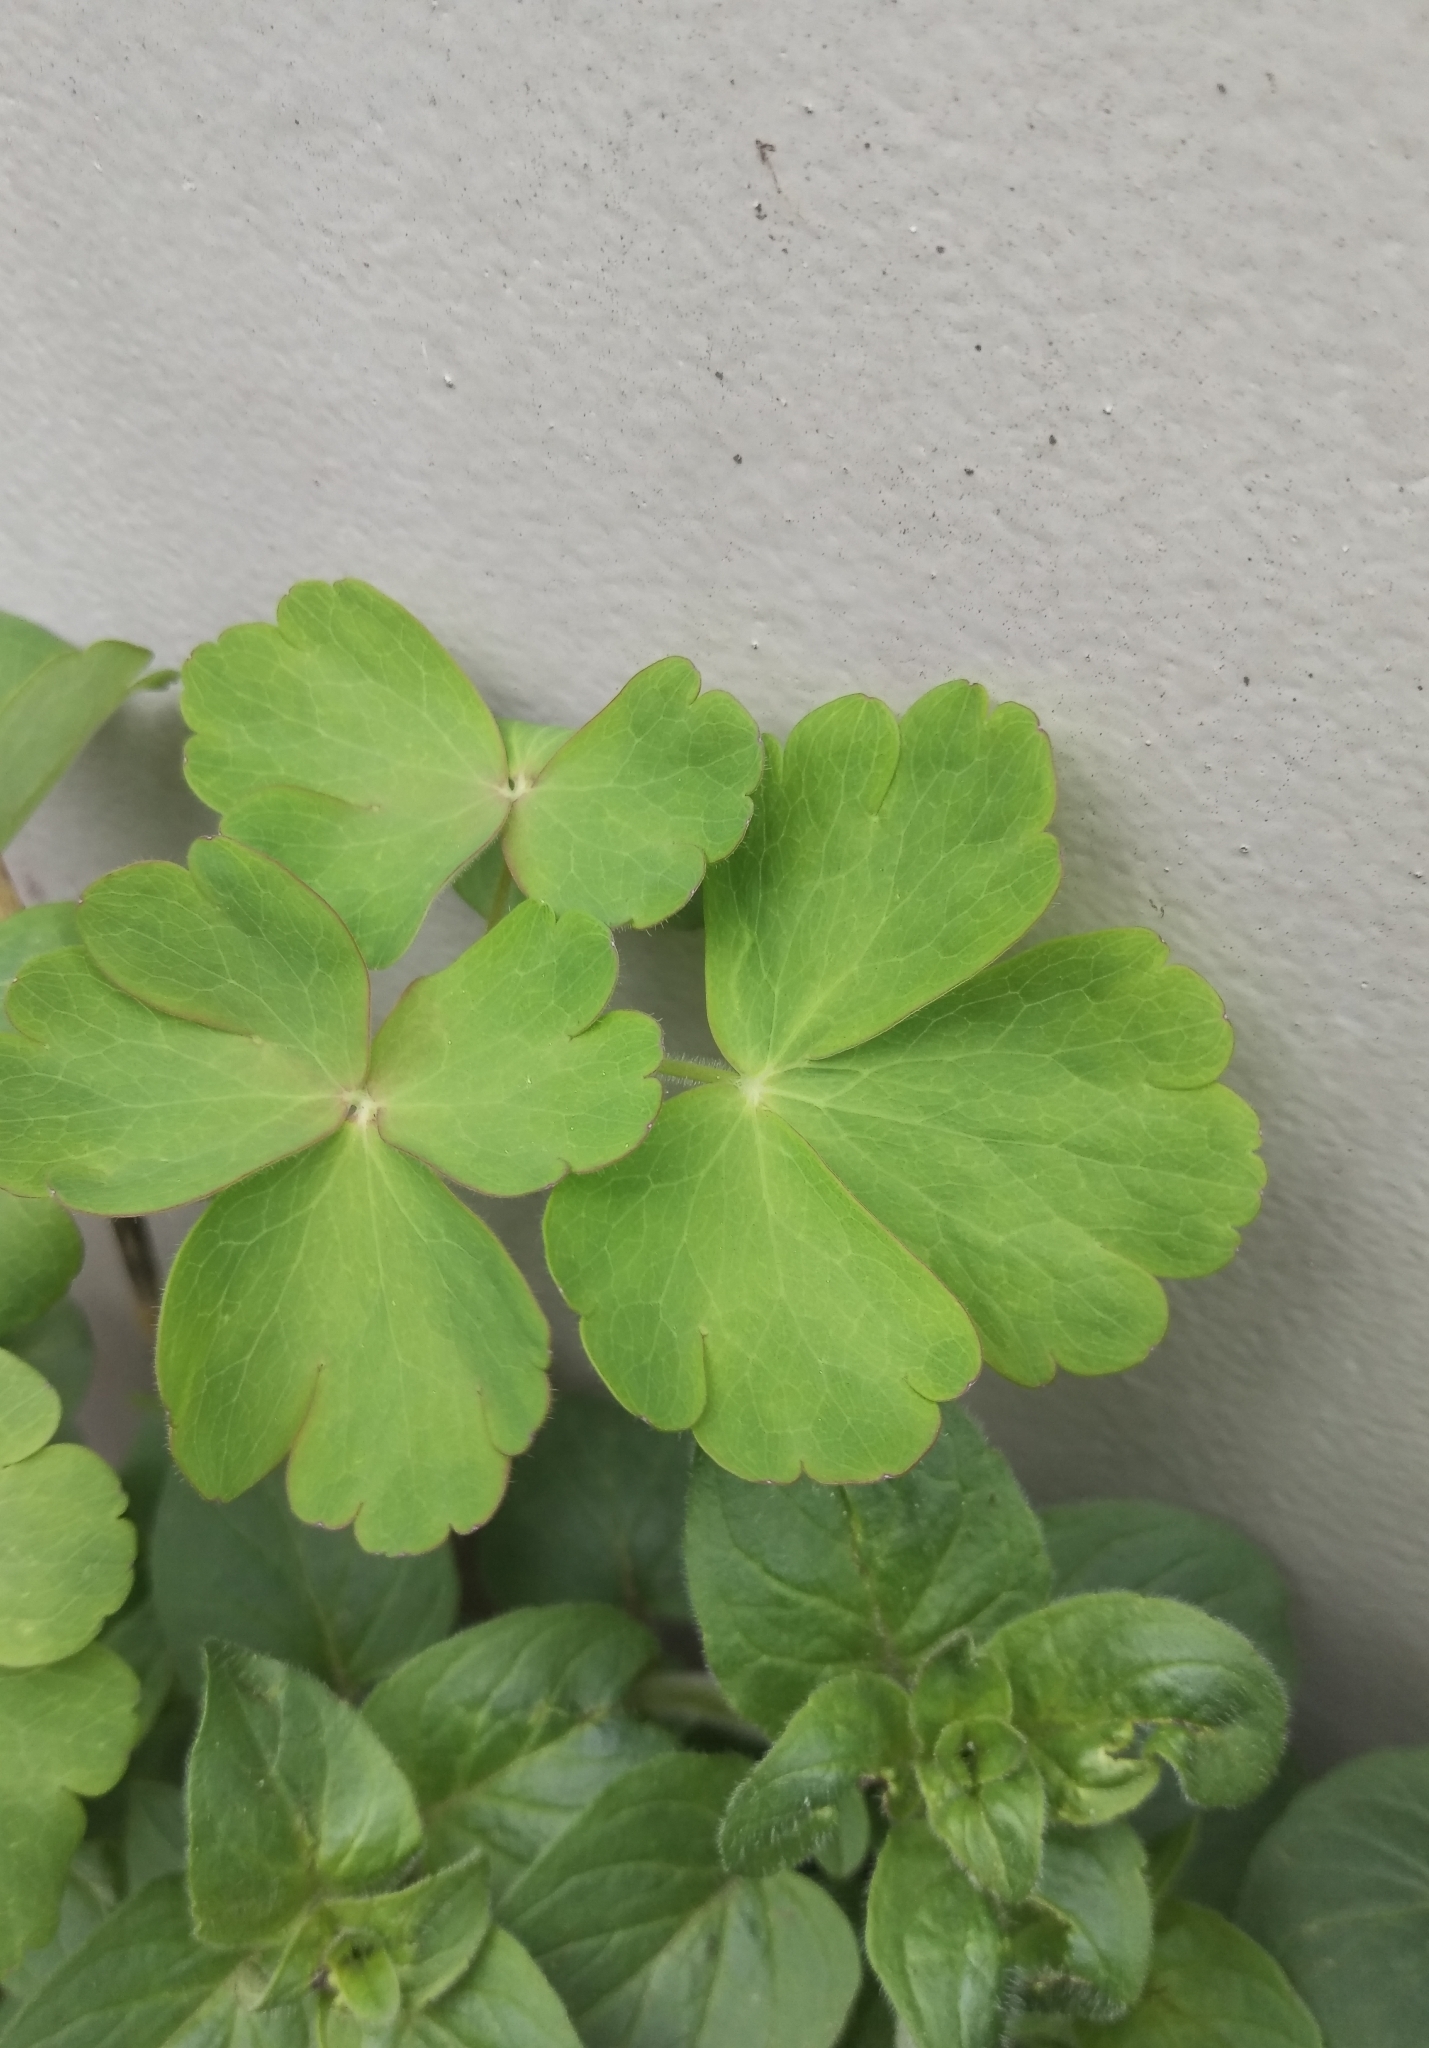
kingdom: Plantae
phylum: Tracheophyta
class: Magnoliopsida
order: Ranunculales
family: Ranunculaceae
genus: Aquilegia
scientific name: Aquilegia vulgaris
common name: Columbine
